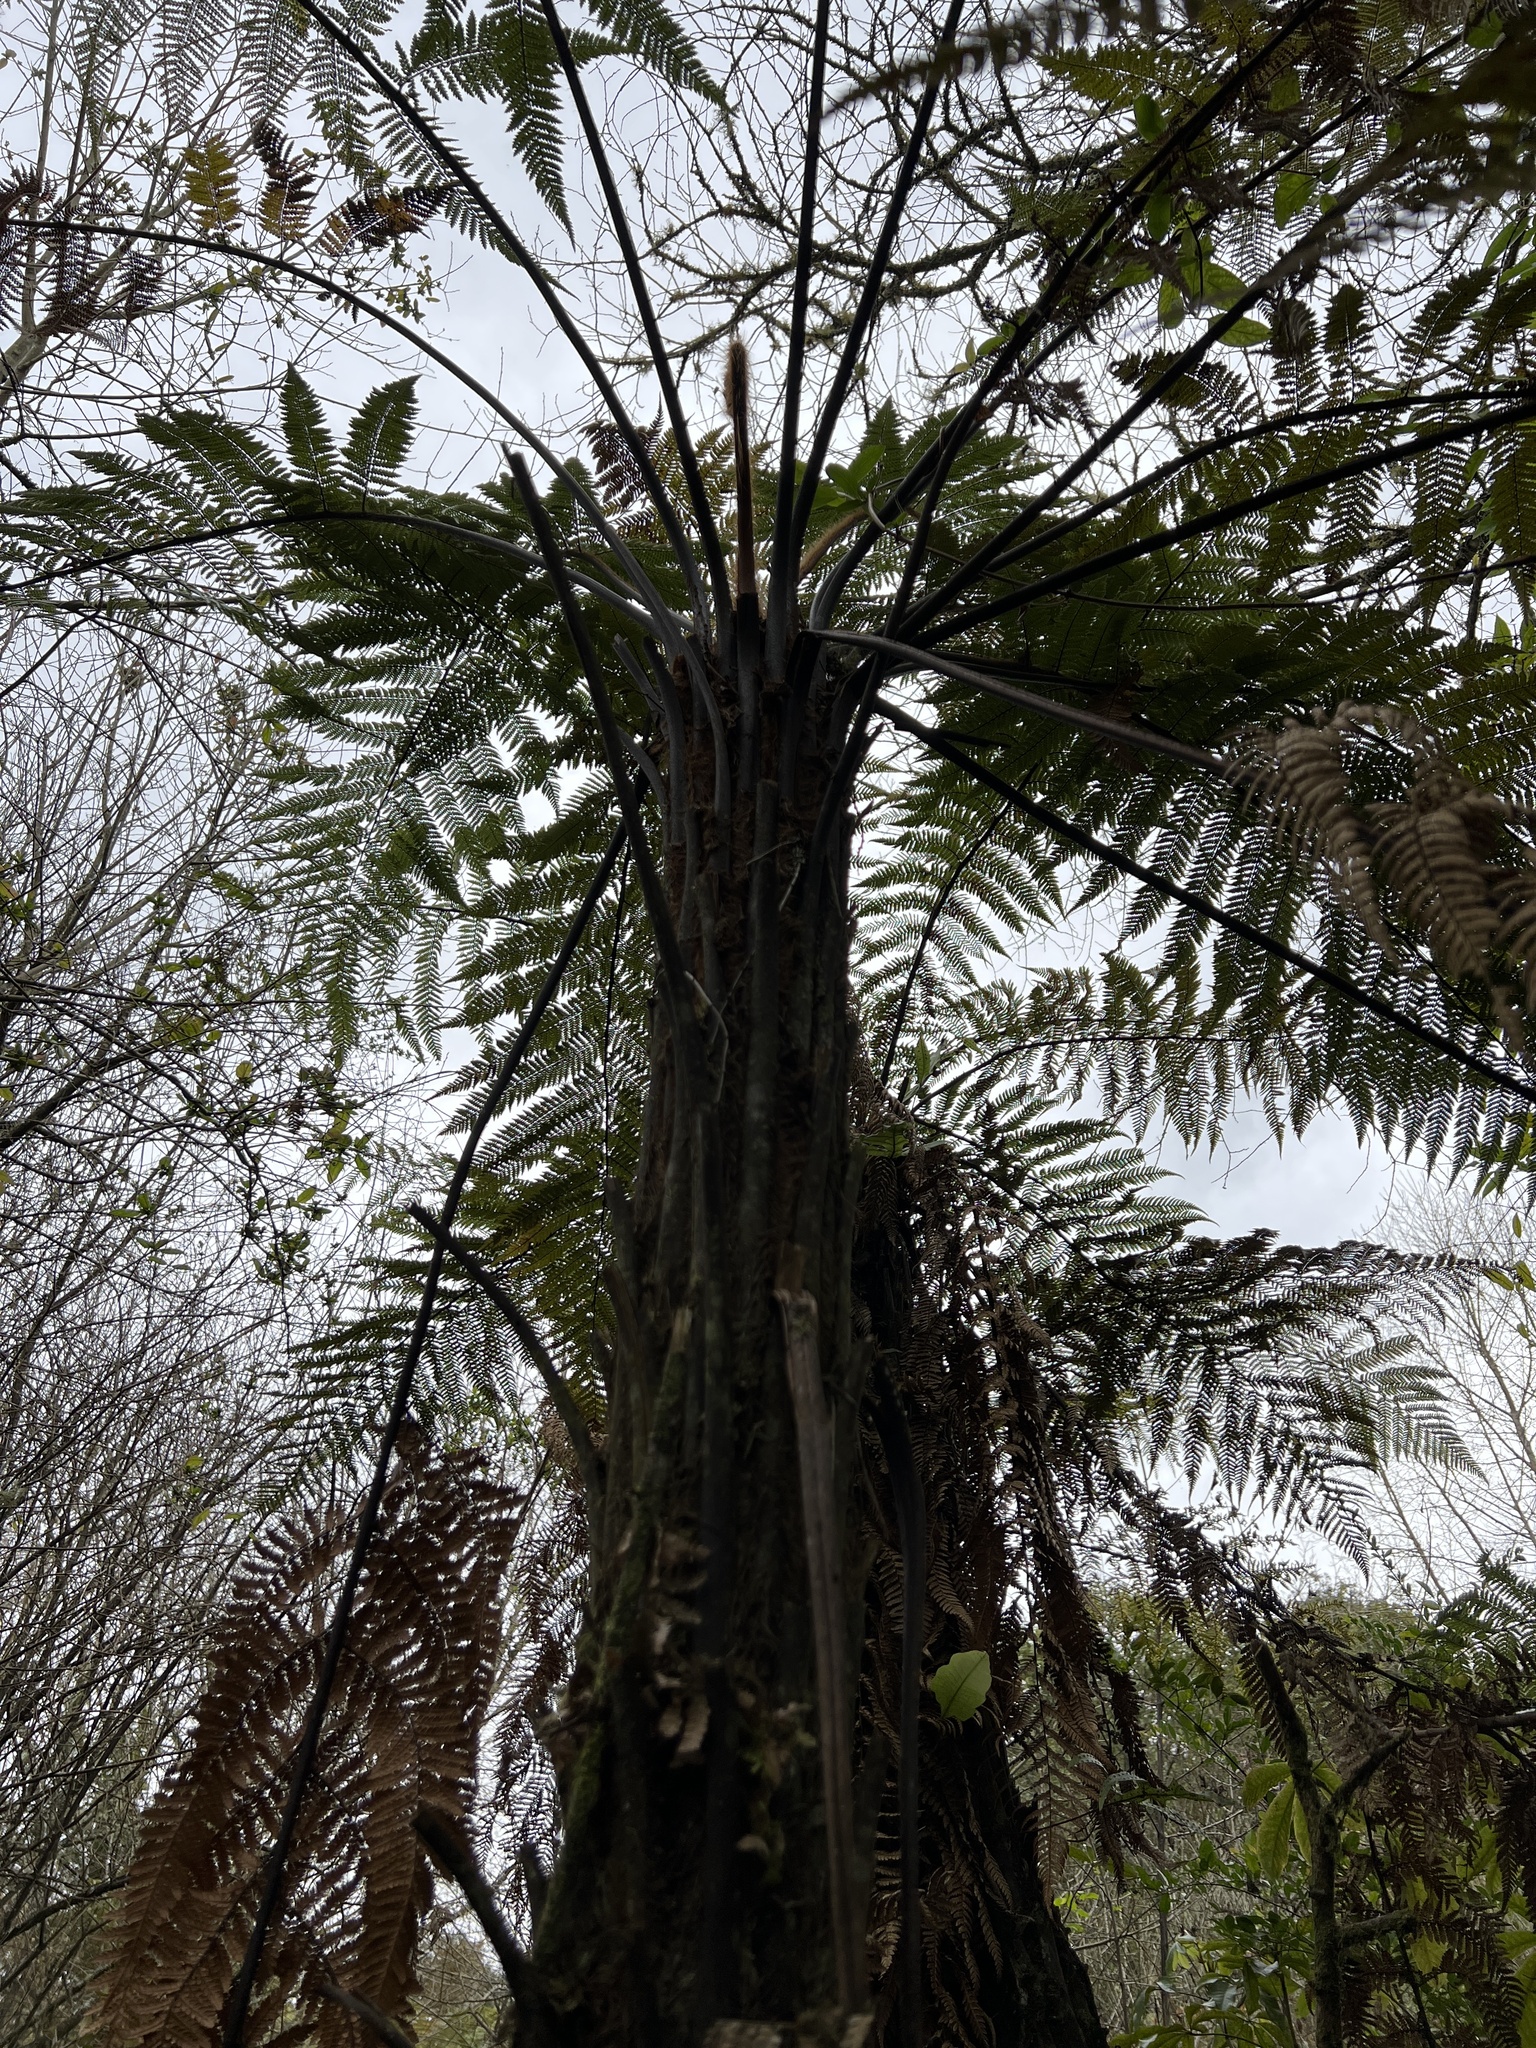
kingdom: Plantae
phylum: Tracheophyta
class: Polypodiopsida
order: Cyatheales
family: Dicksoniaceae
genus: Dicksonia
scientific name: Dicksonia squarrosa
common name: Hard treefern
